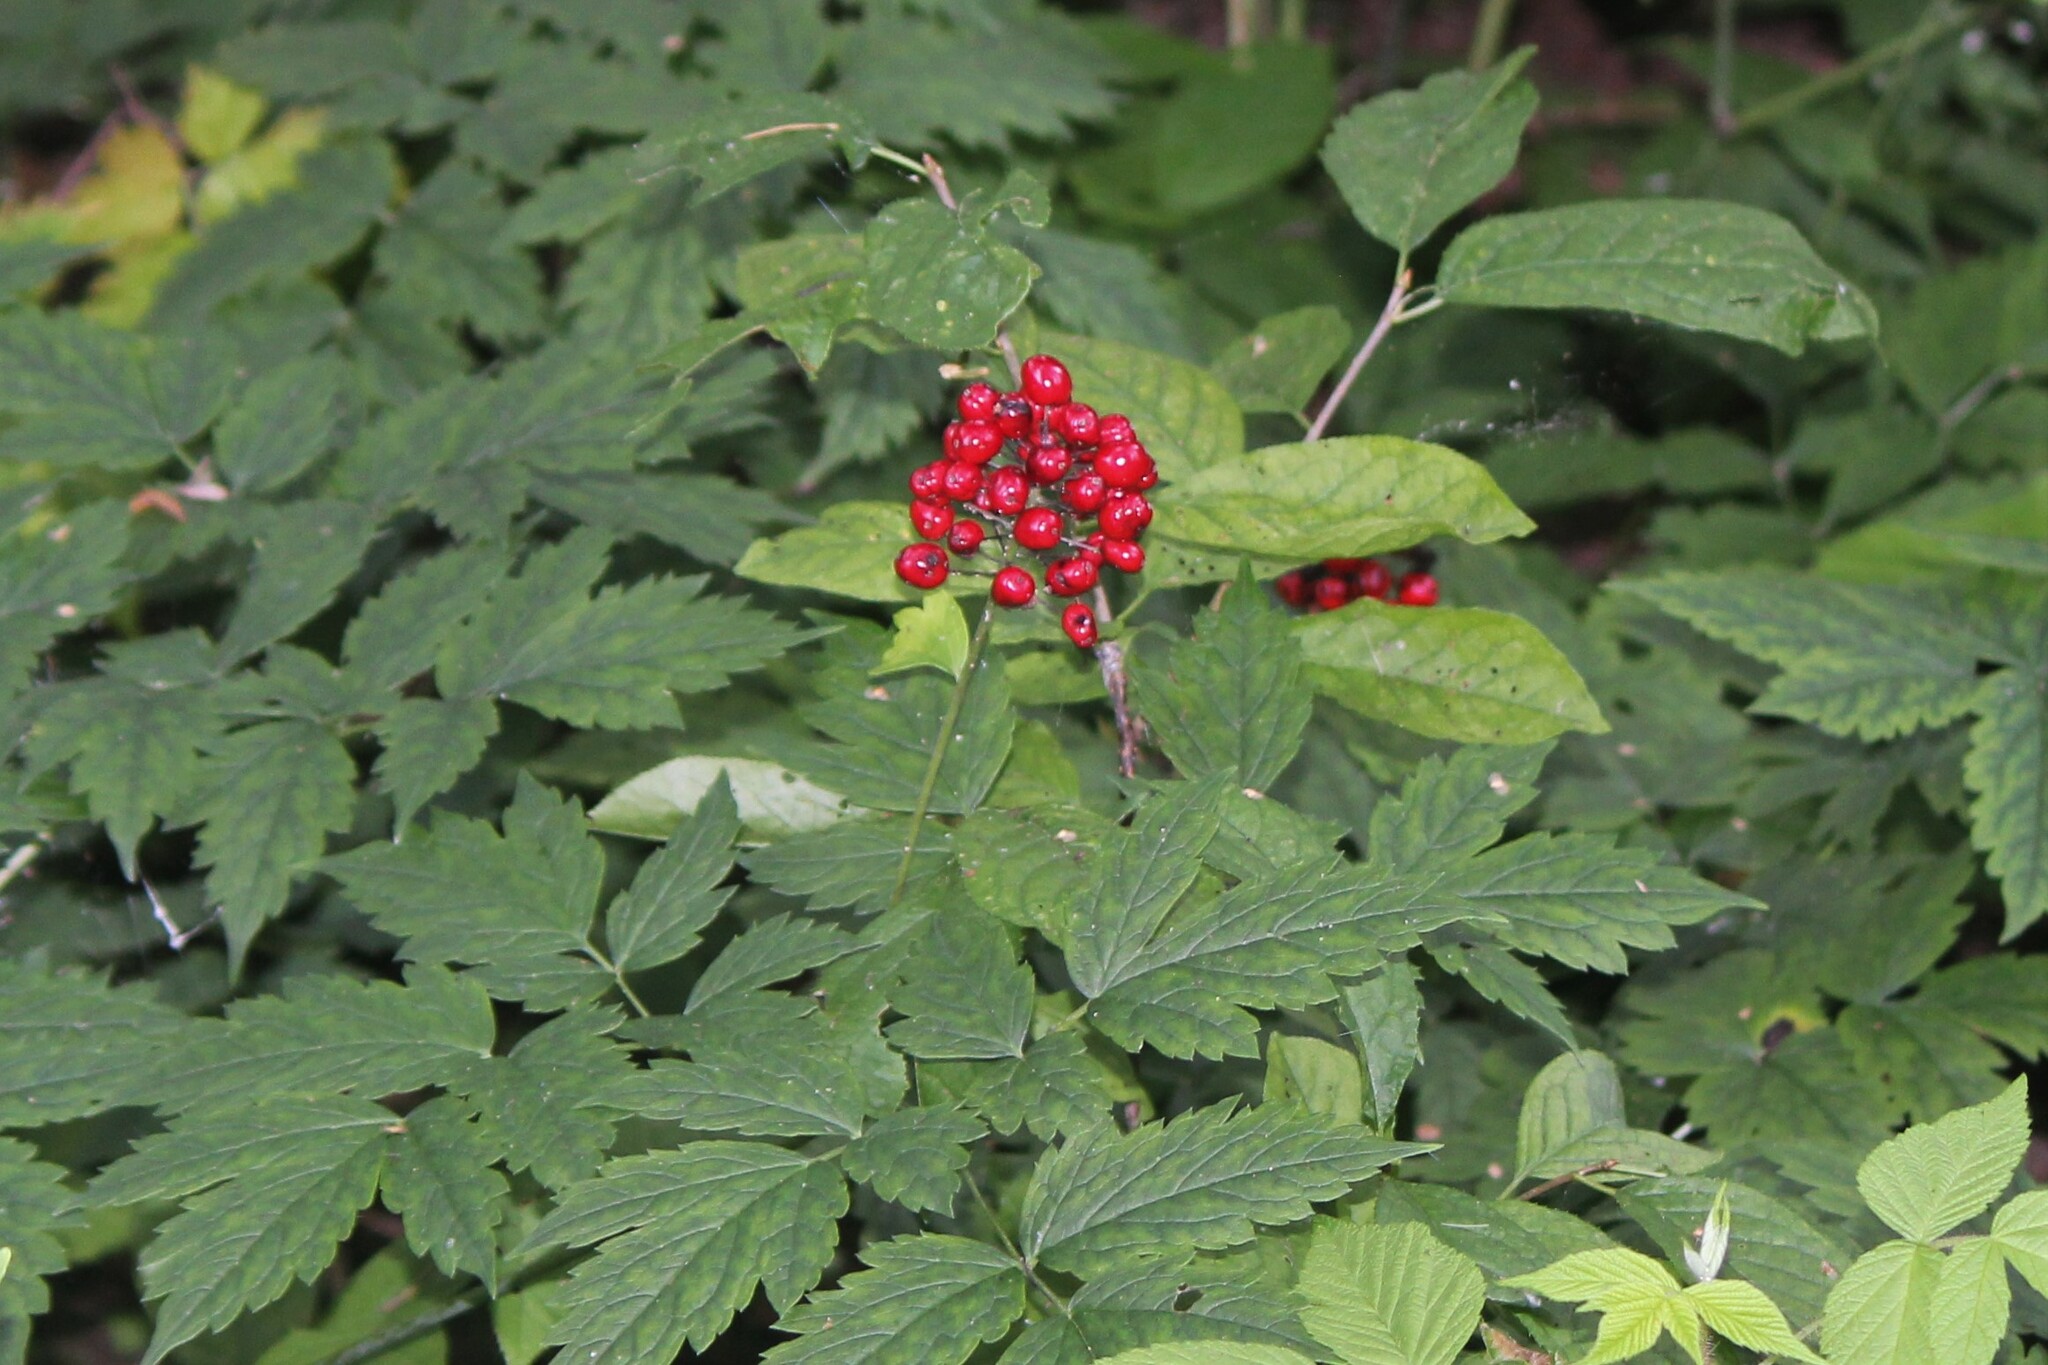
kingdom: Plantae
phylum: Tracheophyta
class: Magnoliopsida
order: Ranunculales
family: Ranunculaceae
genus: Actaea
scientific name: Actaea rubra
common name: Red baneberry
